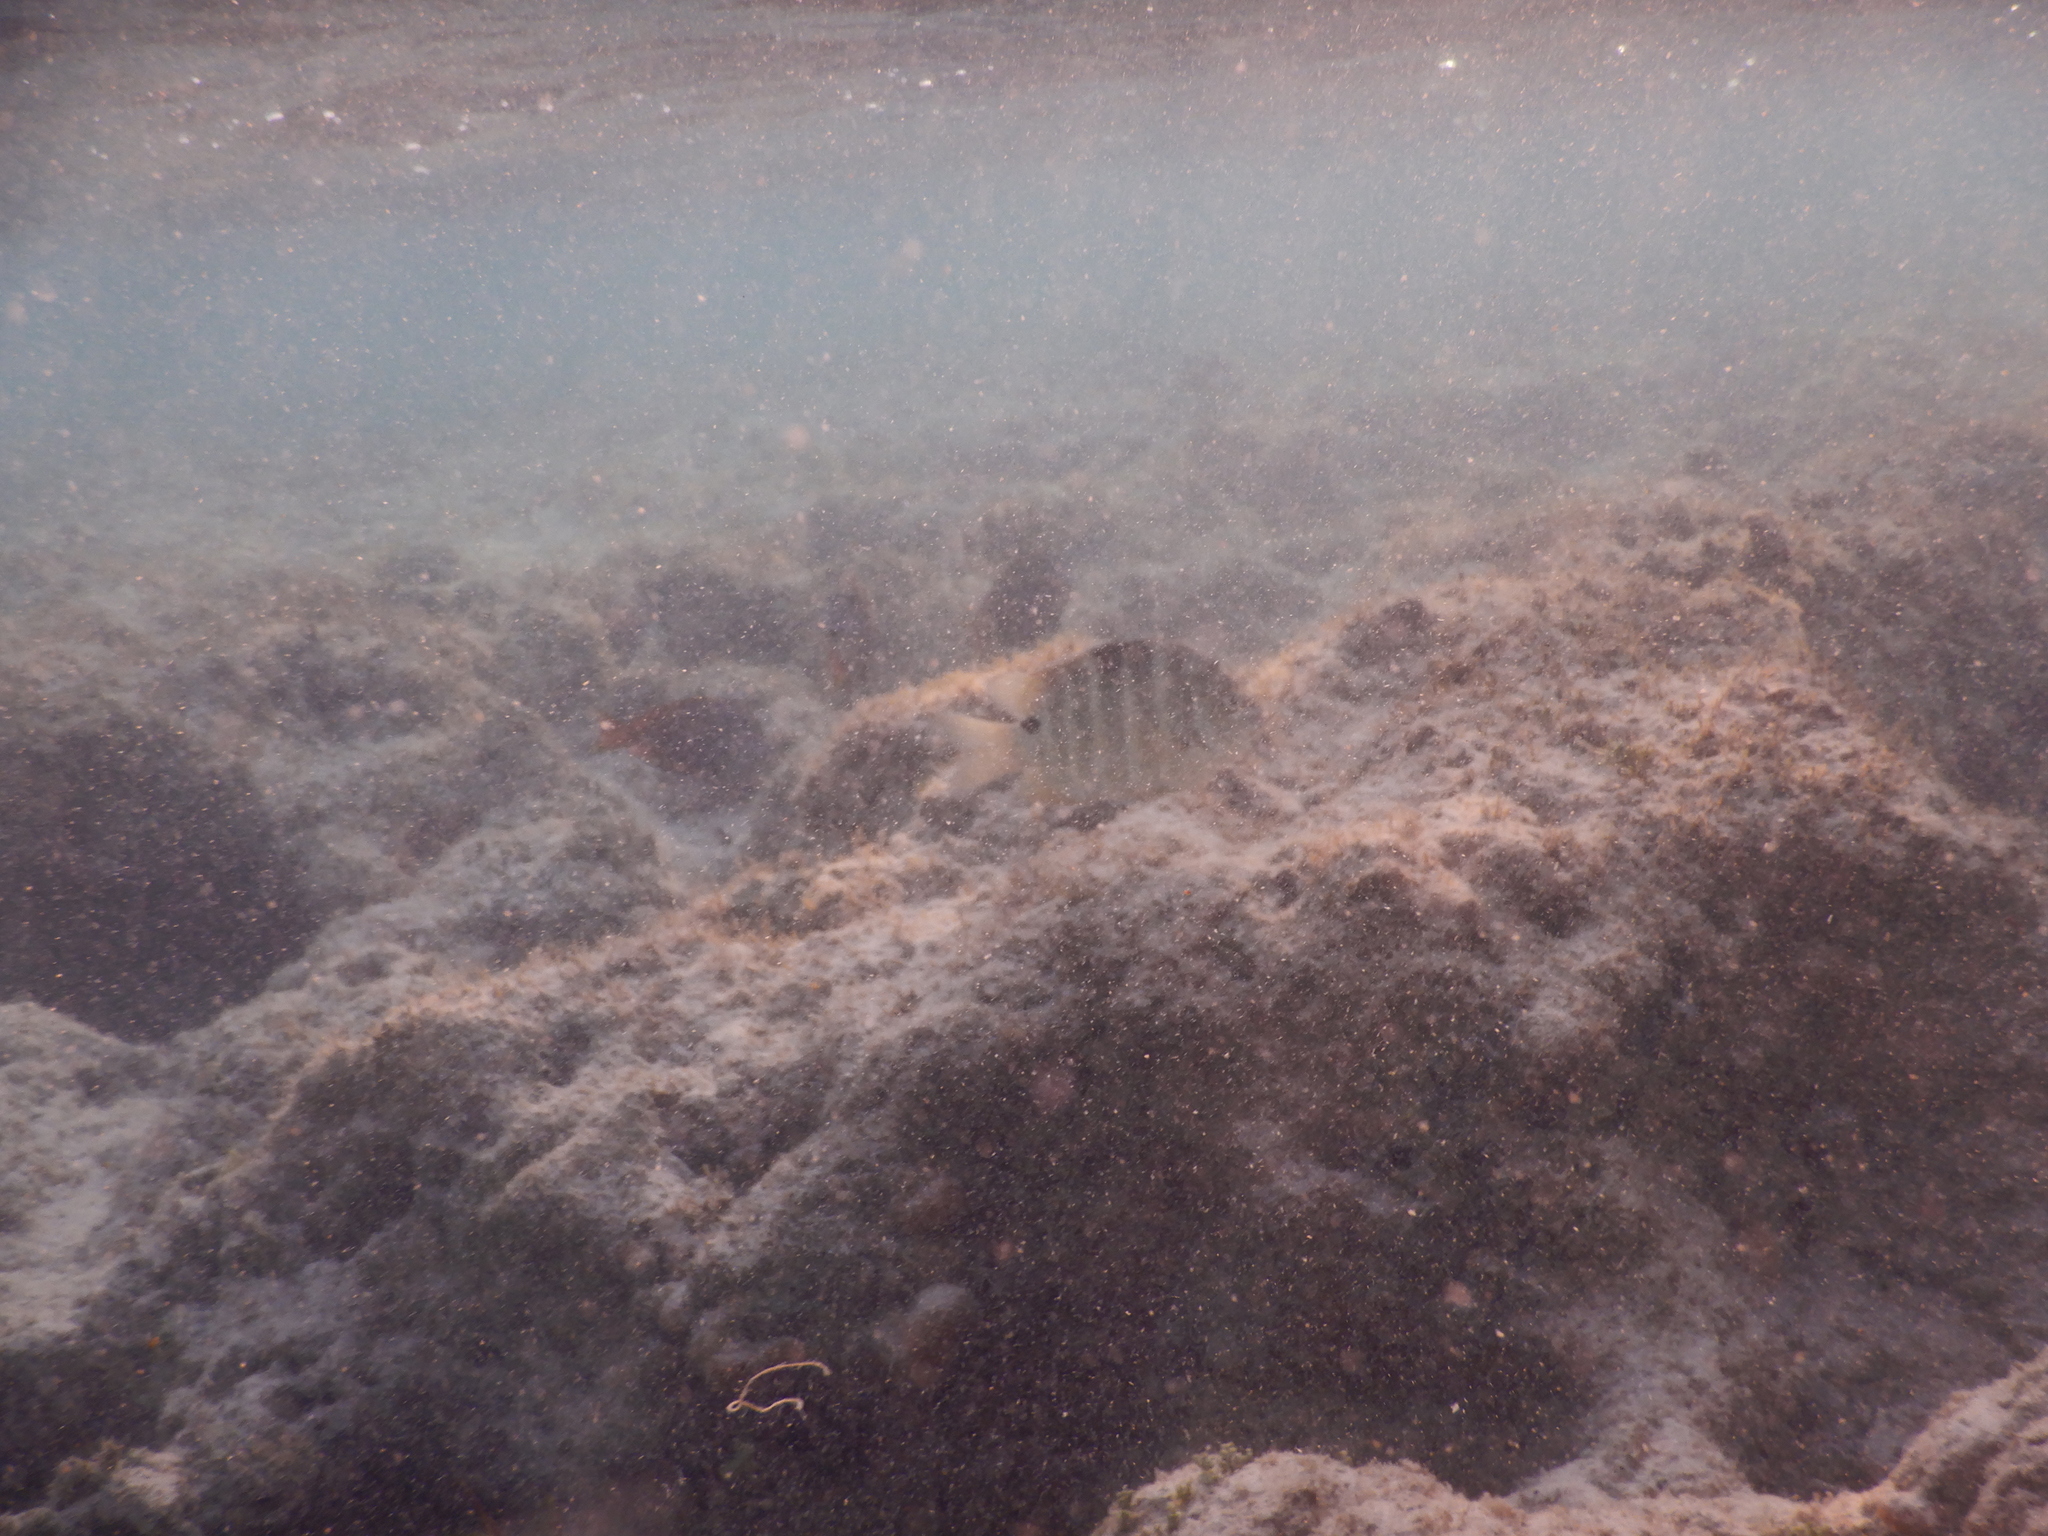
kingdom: Animalia
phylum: Chordata
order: Perciformes
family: Pomacentridae
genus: Abudefduf
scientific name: Abudefduf sordidus
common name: Blackspot sergeant
